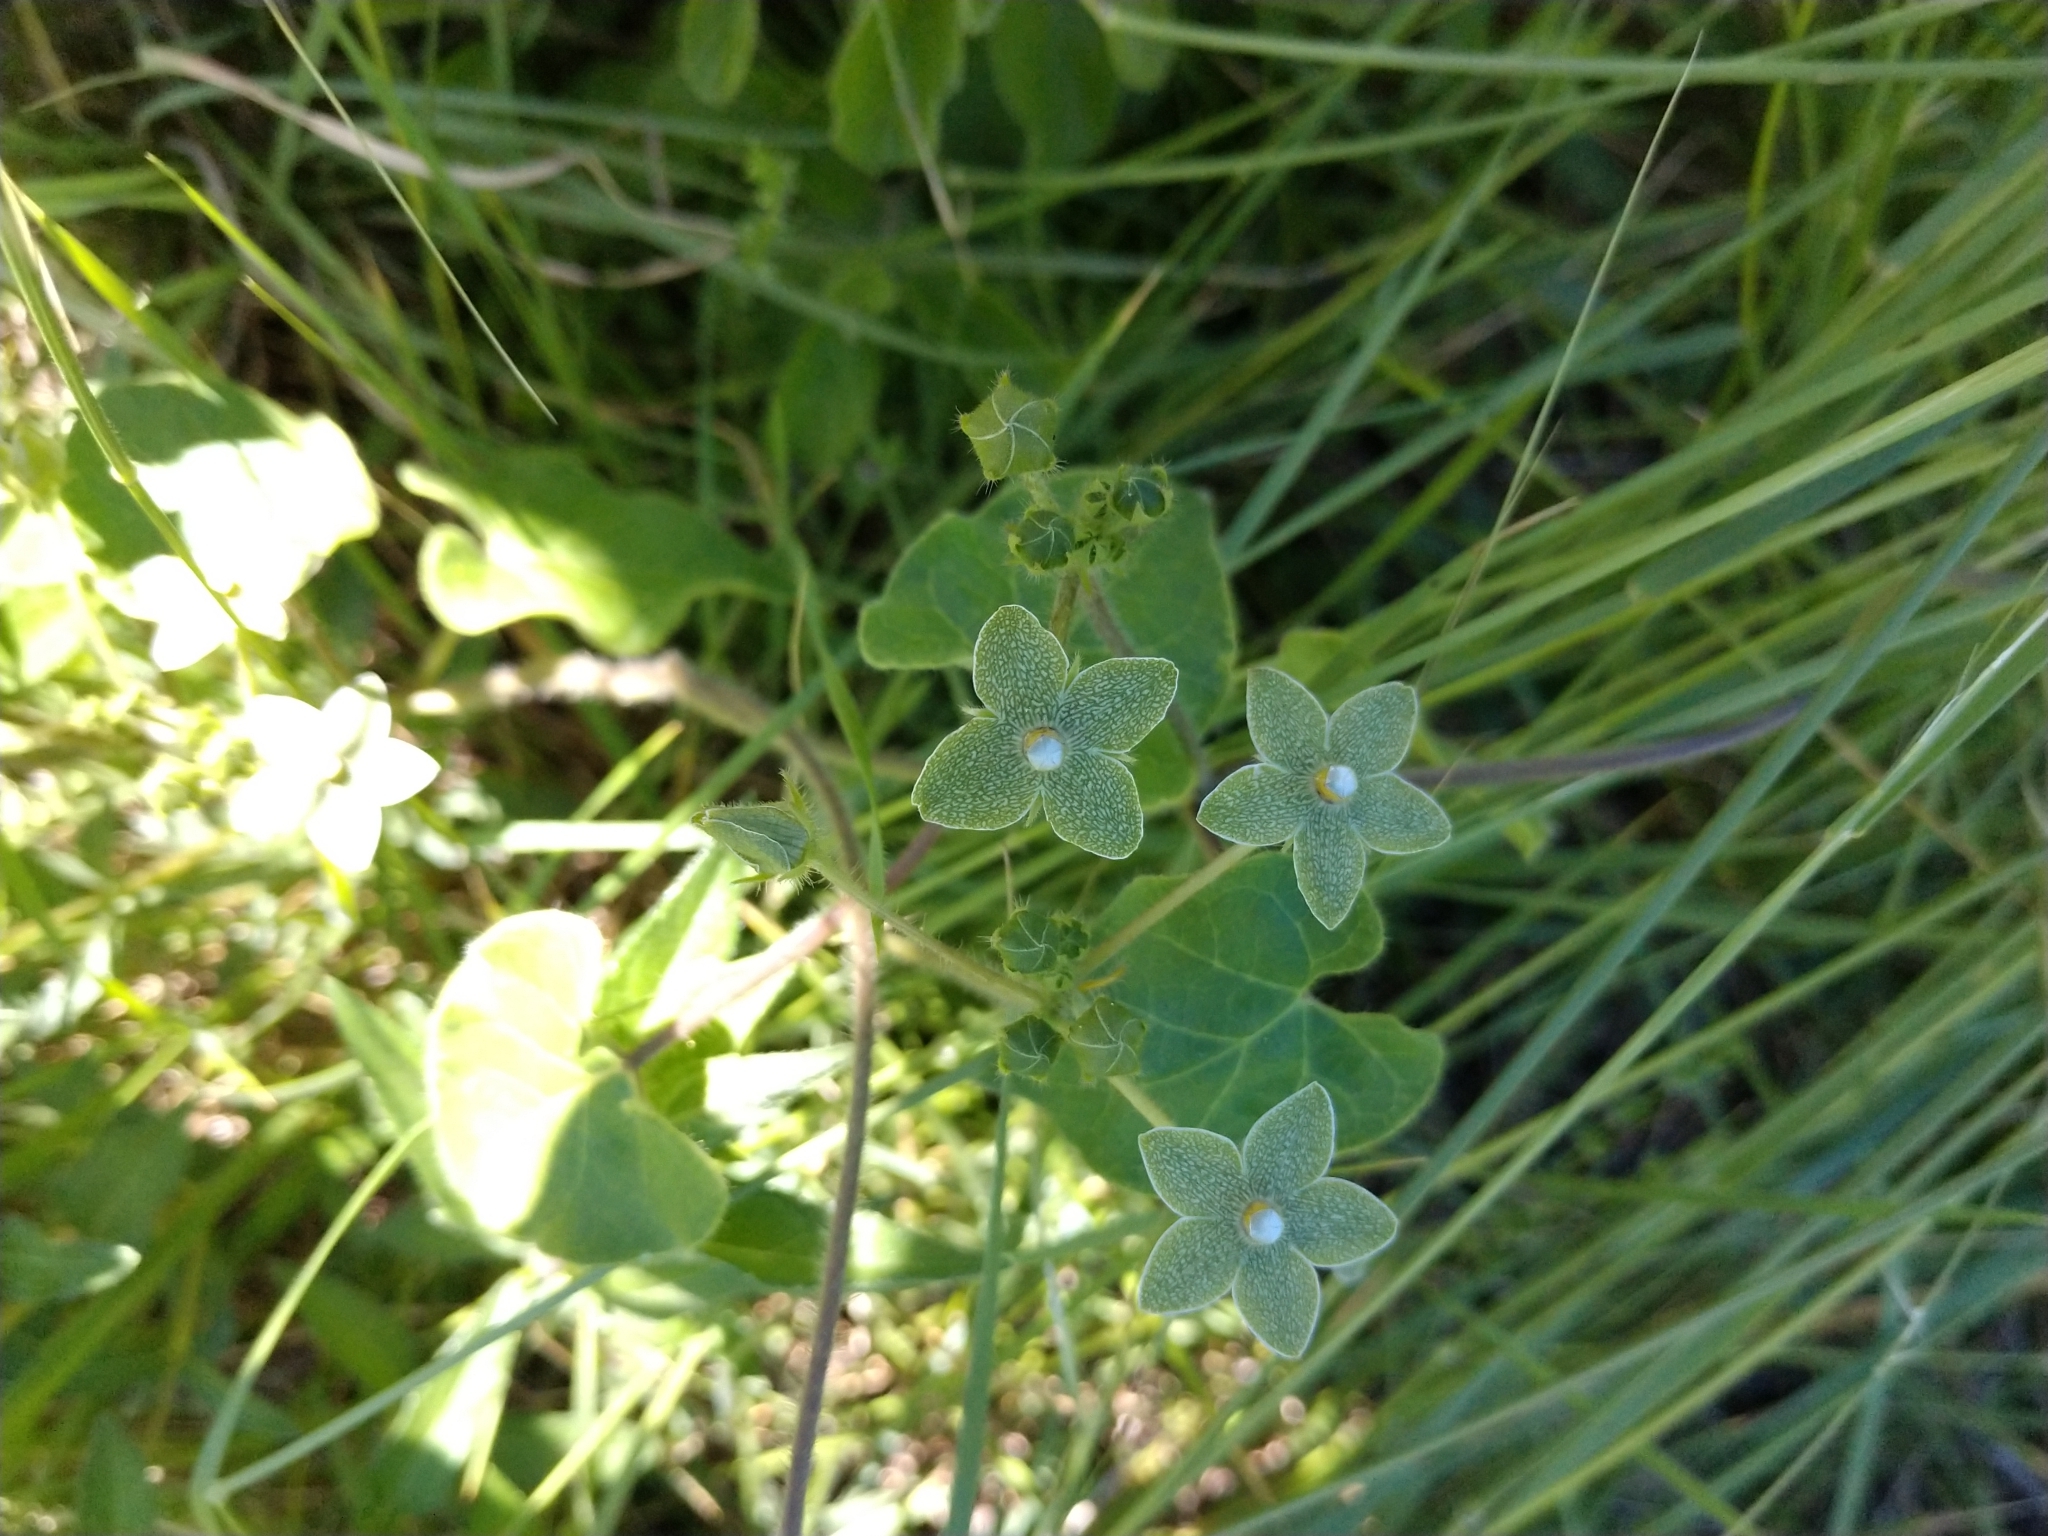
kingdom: Plantae
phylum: Tracheophyta
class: Magnoliopsida
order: Gentianales
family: Apocynaceae
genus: Dictyanthus
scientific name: Dictyanthus reticulatus
